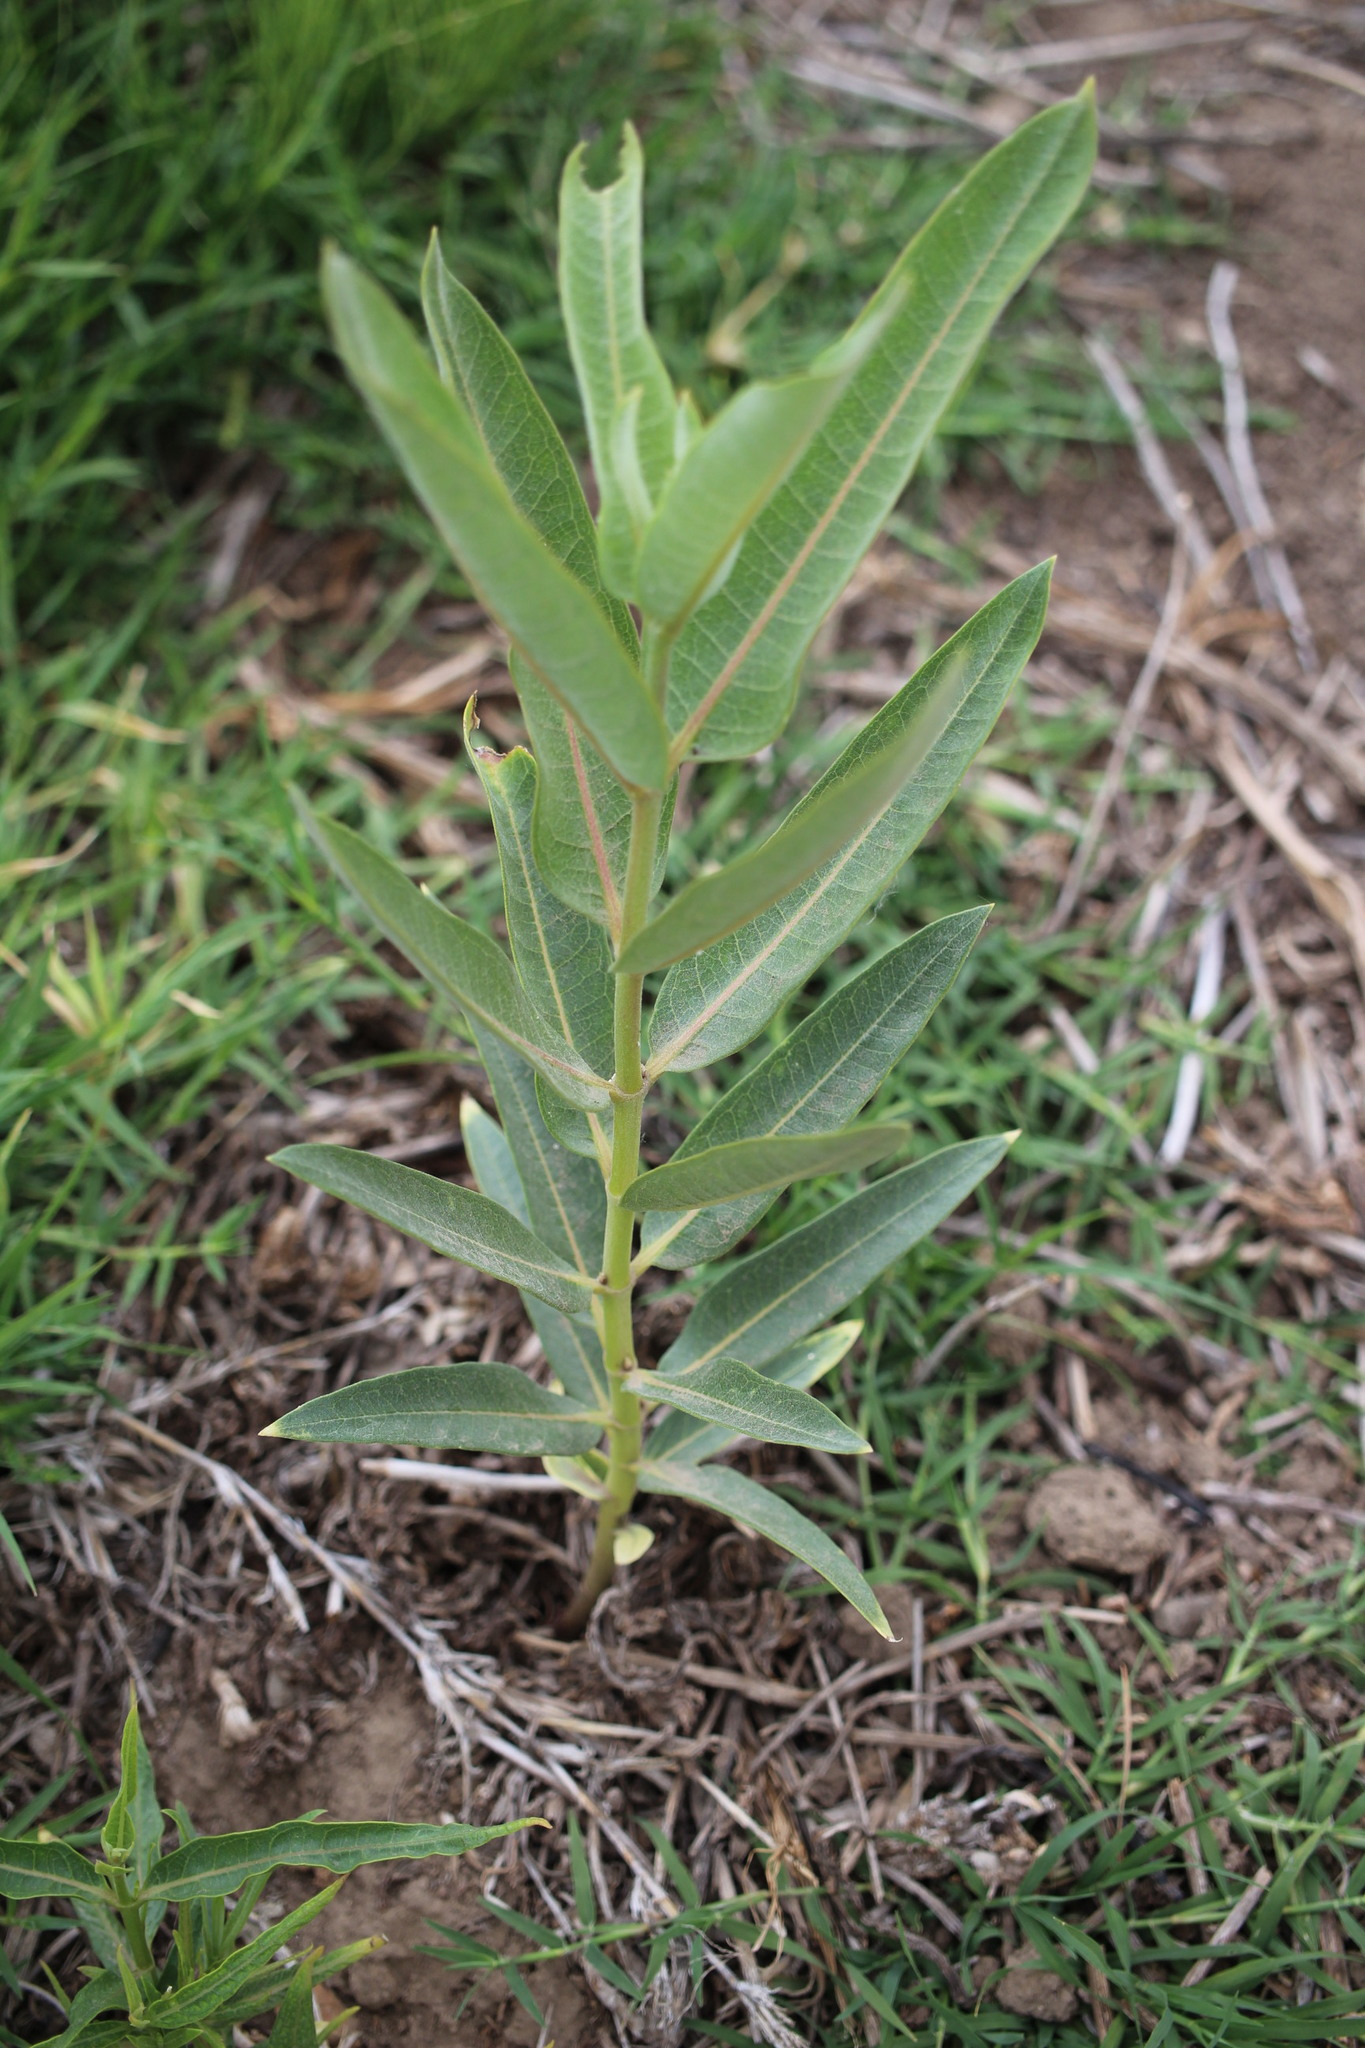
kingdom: Plantae
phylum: Tracheophyta
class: Magnoliopsida
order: Gentianales
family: Apocynaceae
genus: Asclepias
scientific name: Asclepias speciosa
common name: Showy milkweed
